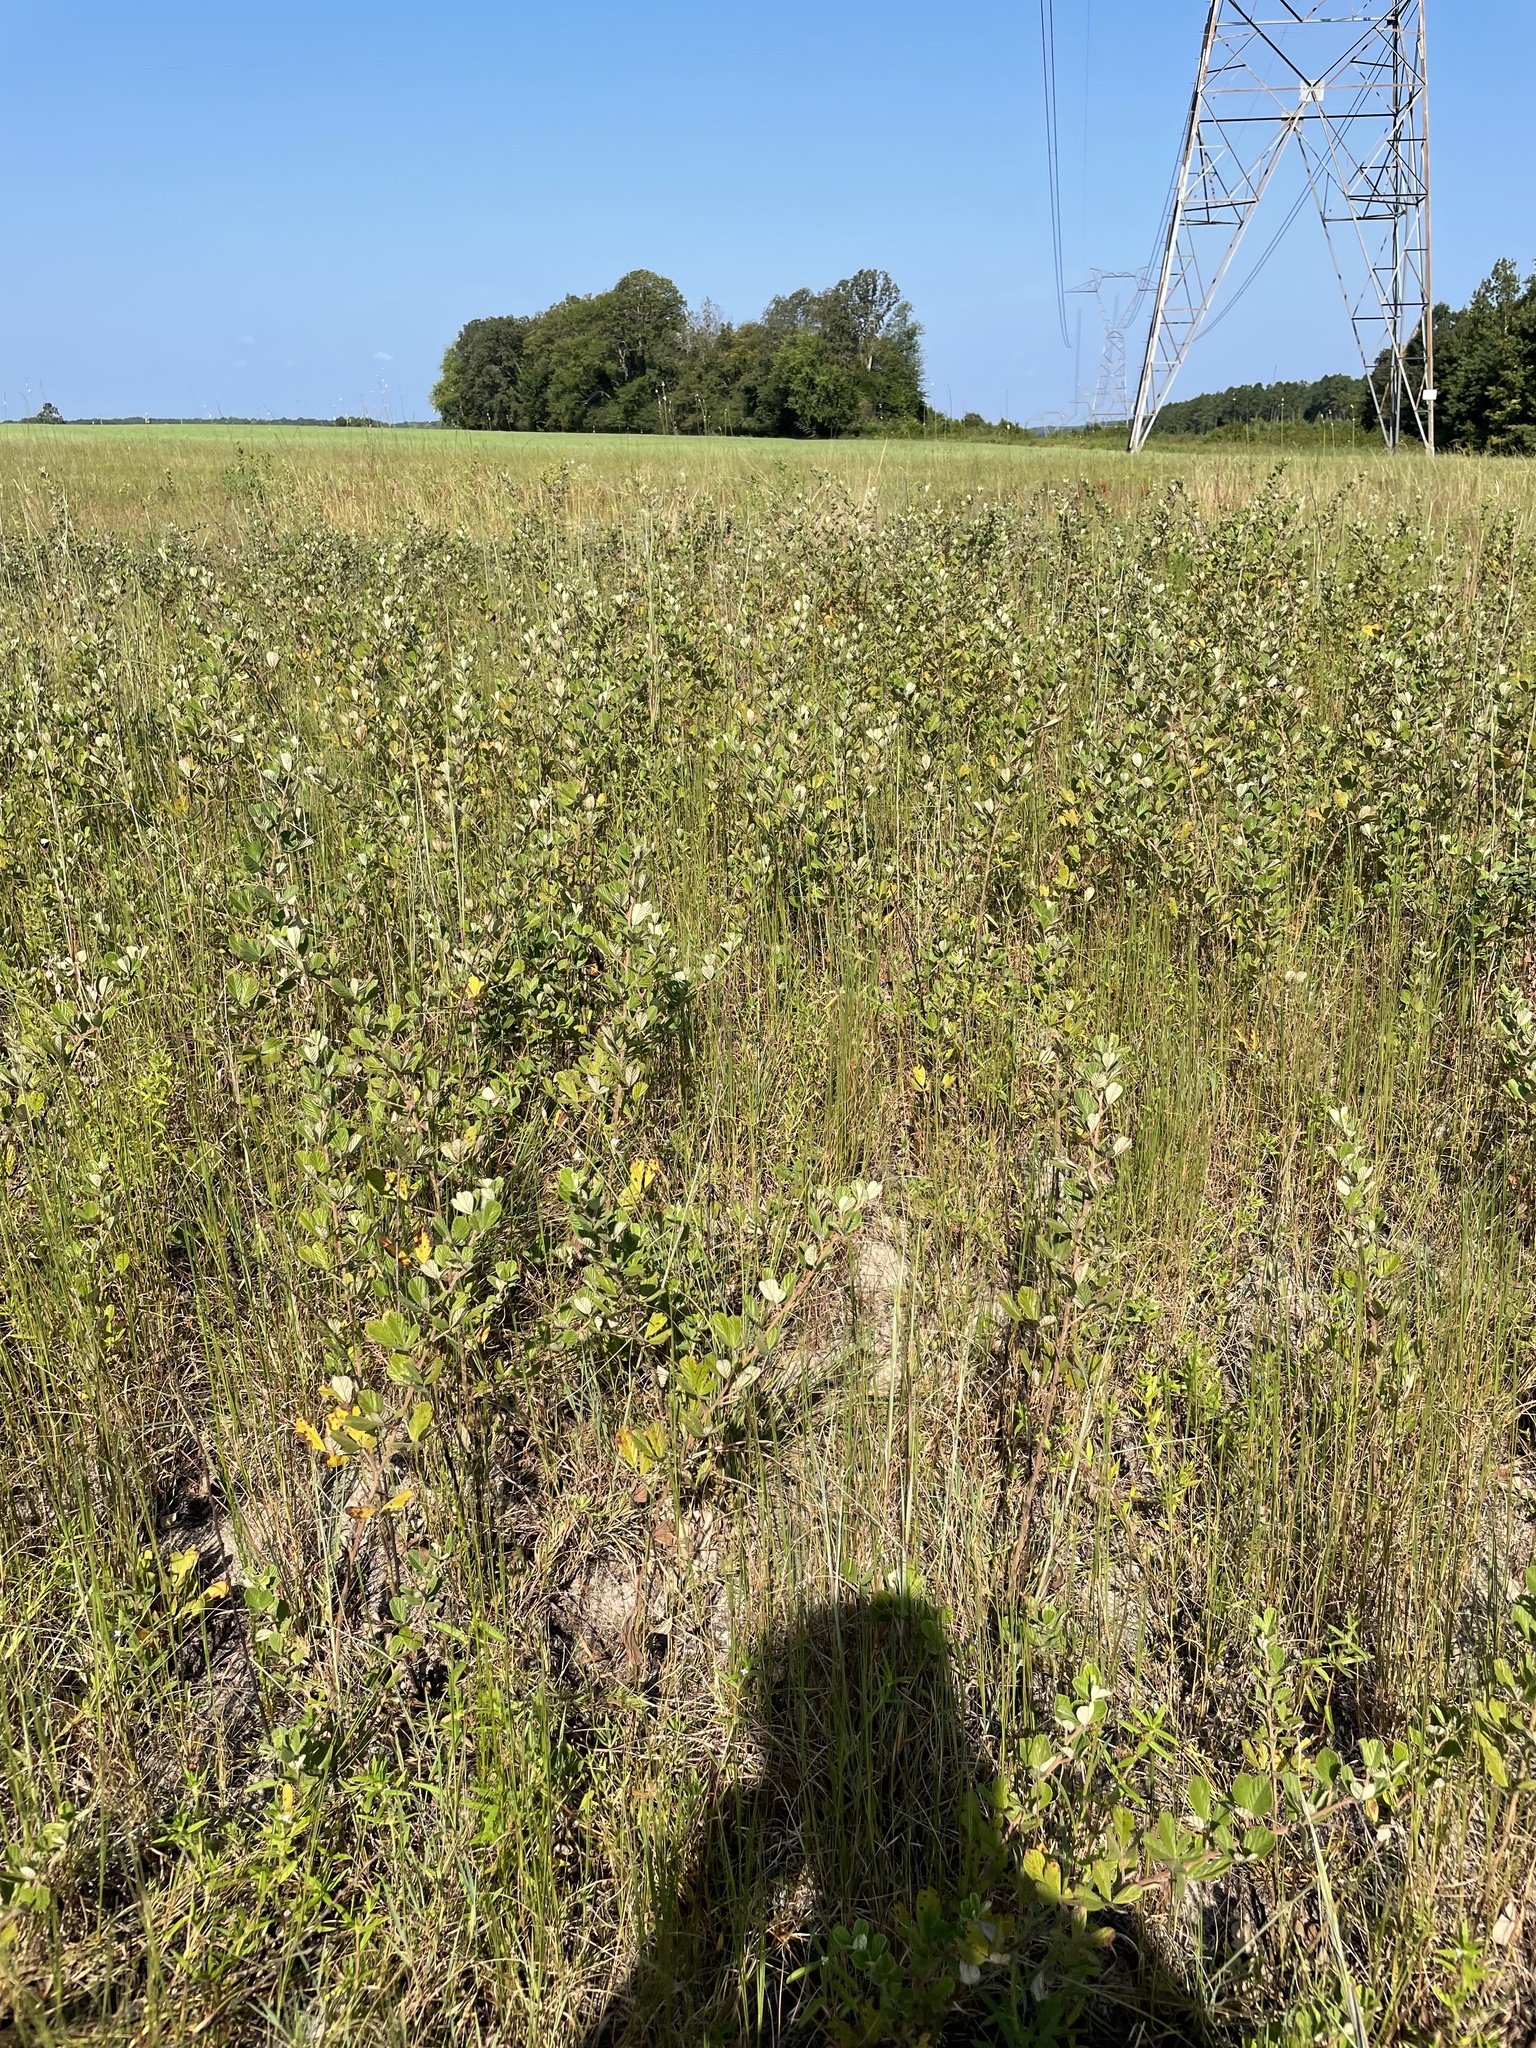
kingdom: Plantae
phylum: Tracheophyta
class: Magnoliopsida
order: Rosales
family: Rosaceae
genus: Rubus
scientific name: Rubus cuneifolius
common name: American bramble
